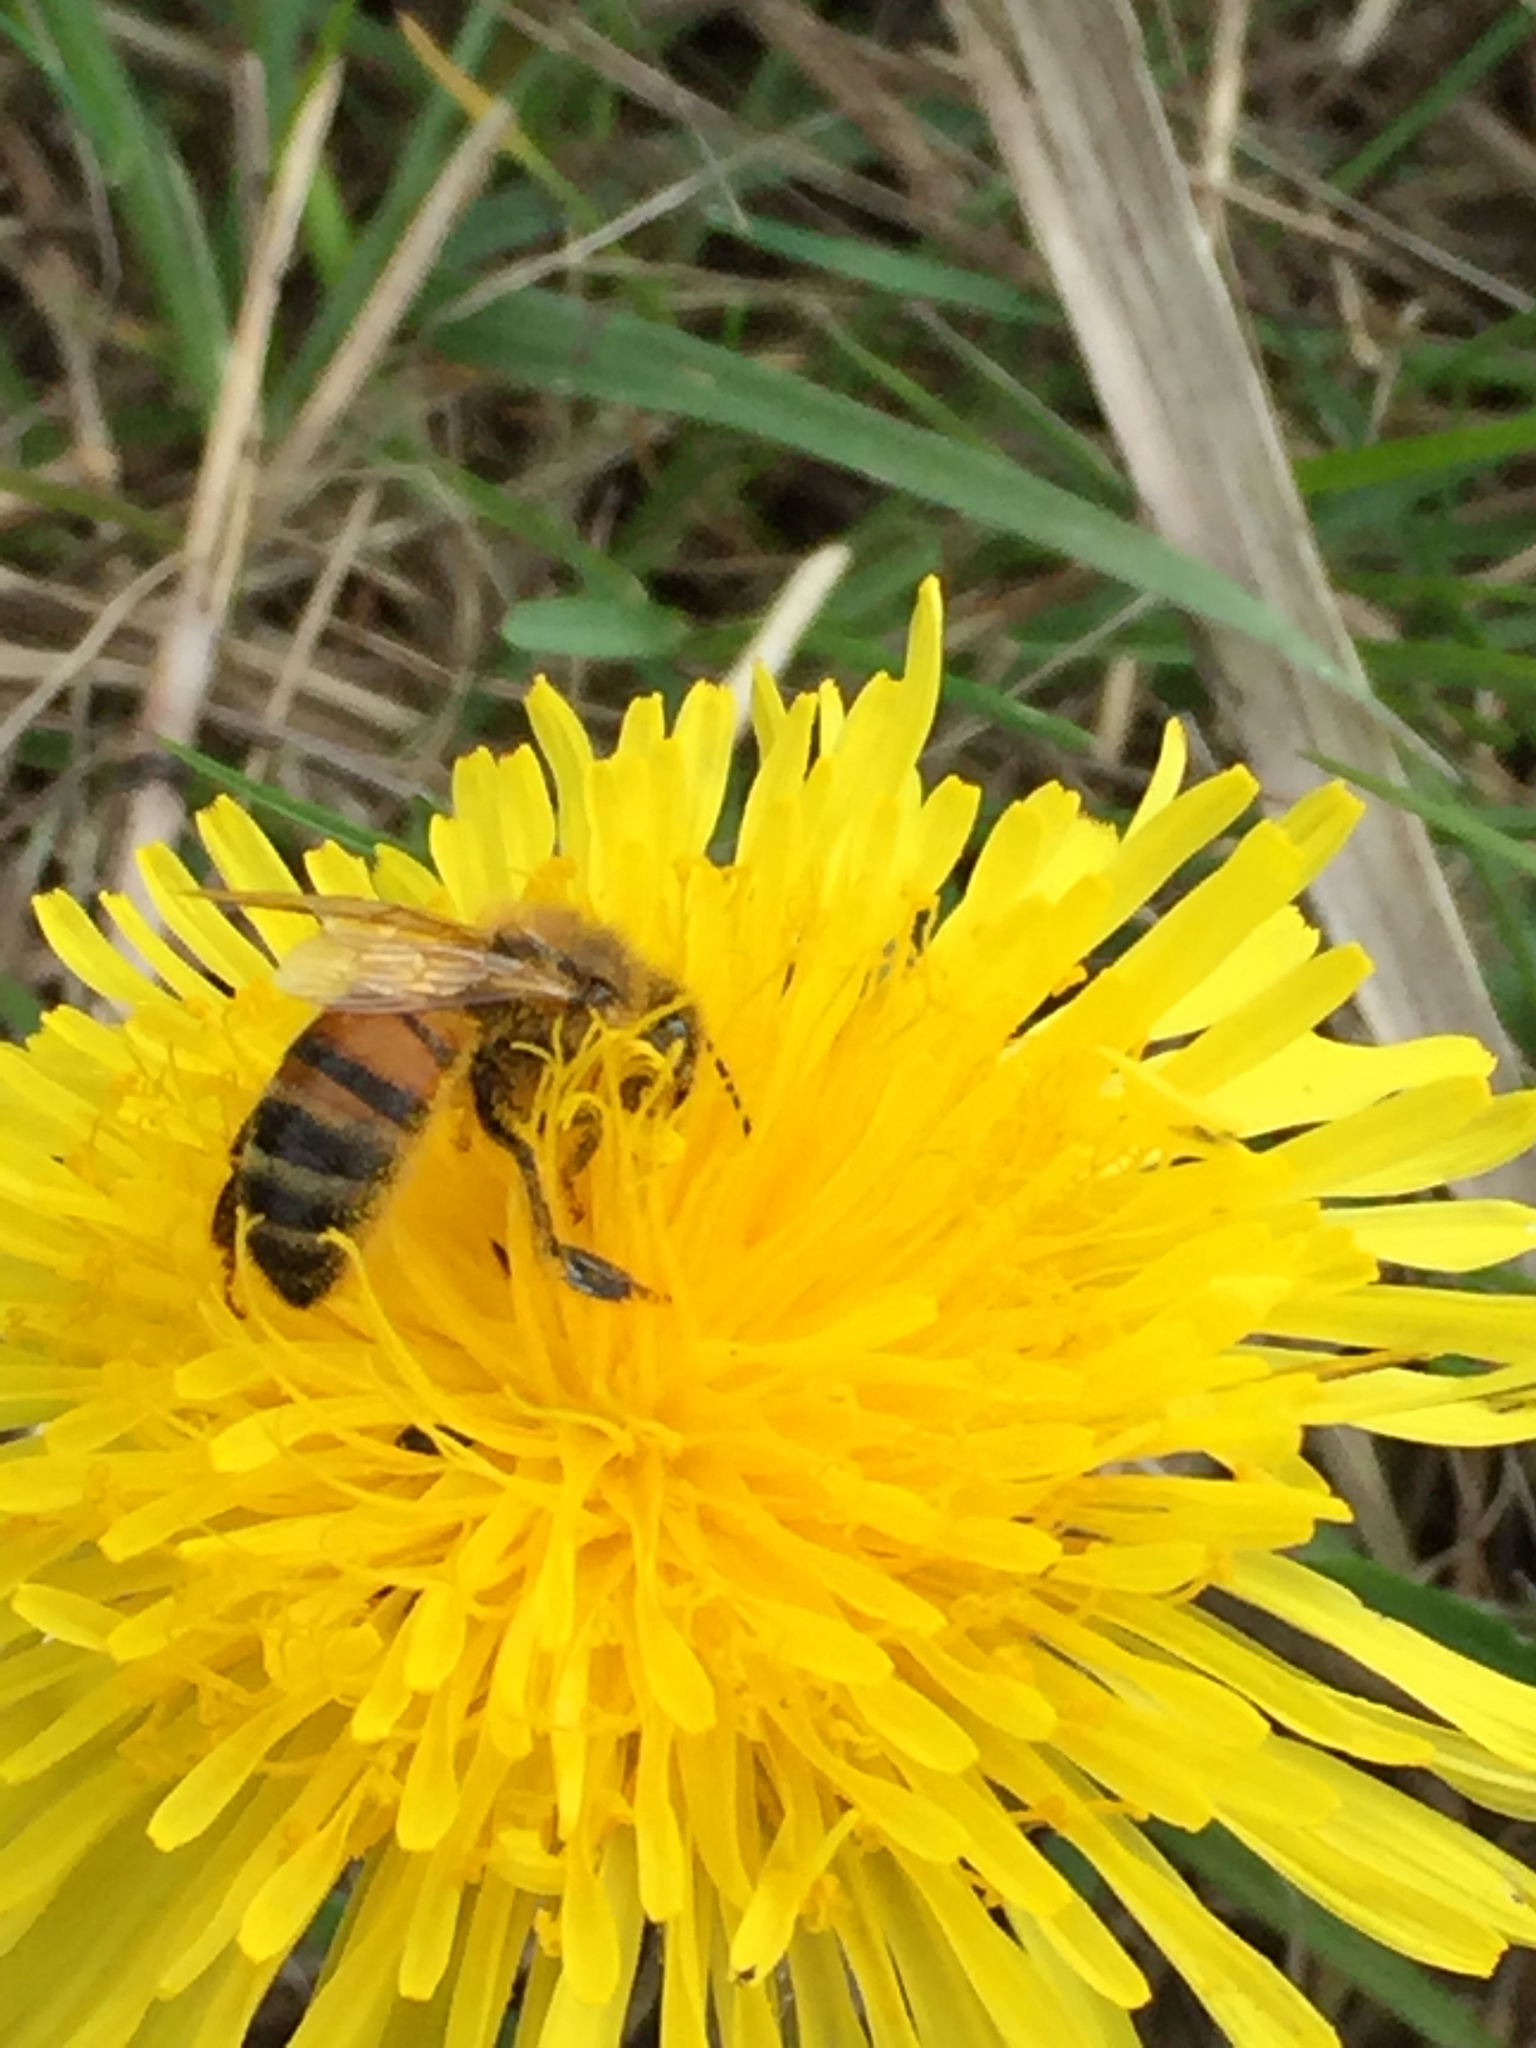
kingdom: Animalia
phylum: Arthropoda
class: Insecta
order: Hymenoptera
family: Apidae
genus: Apis
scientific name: Apis mellifera
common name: Honey bee
